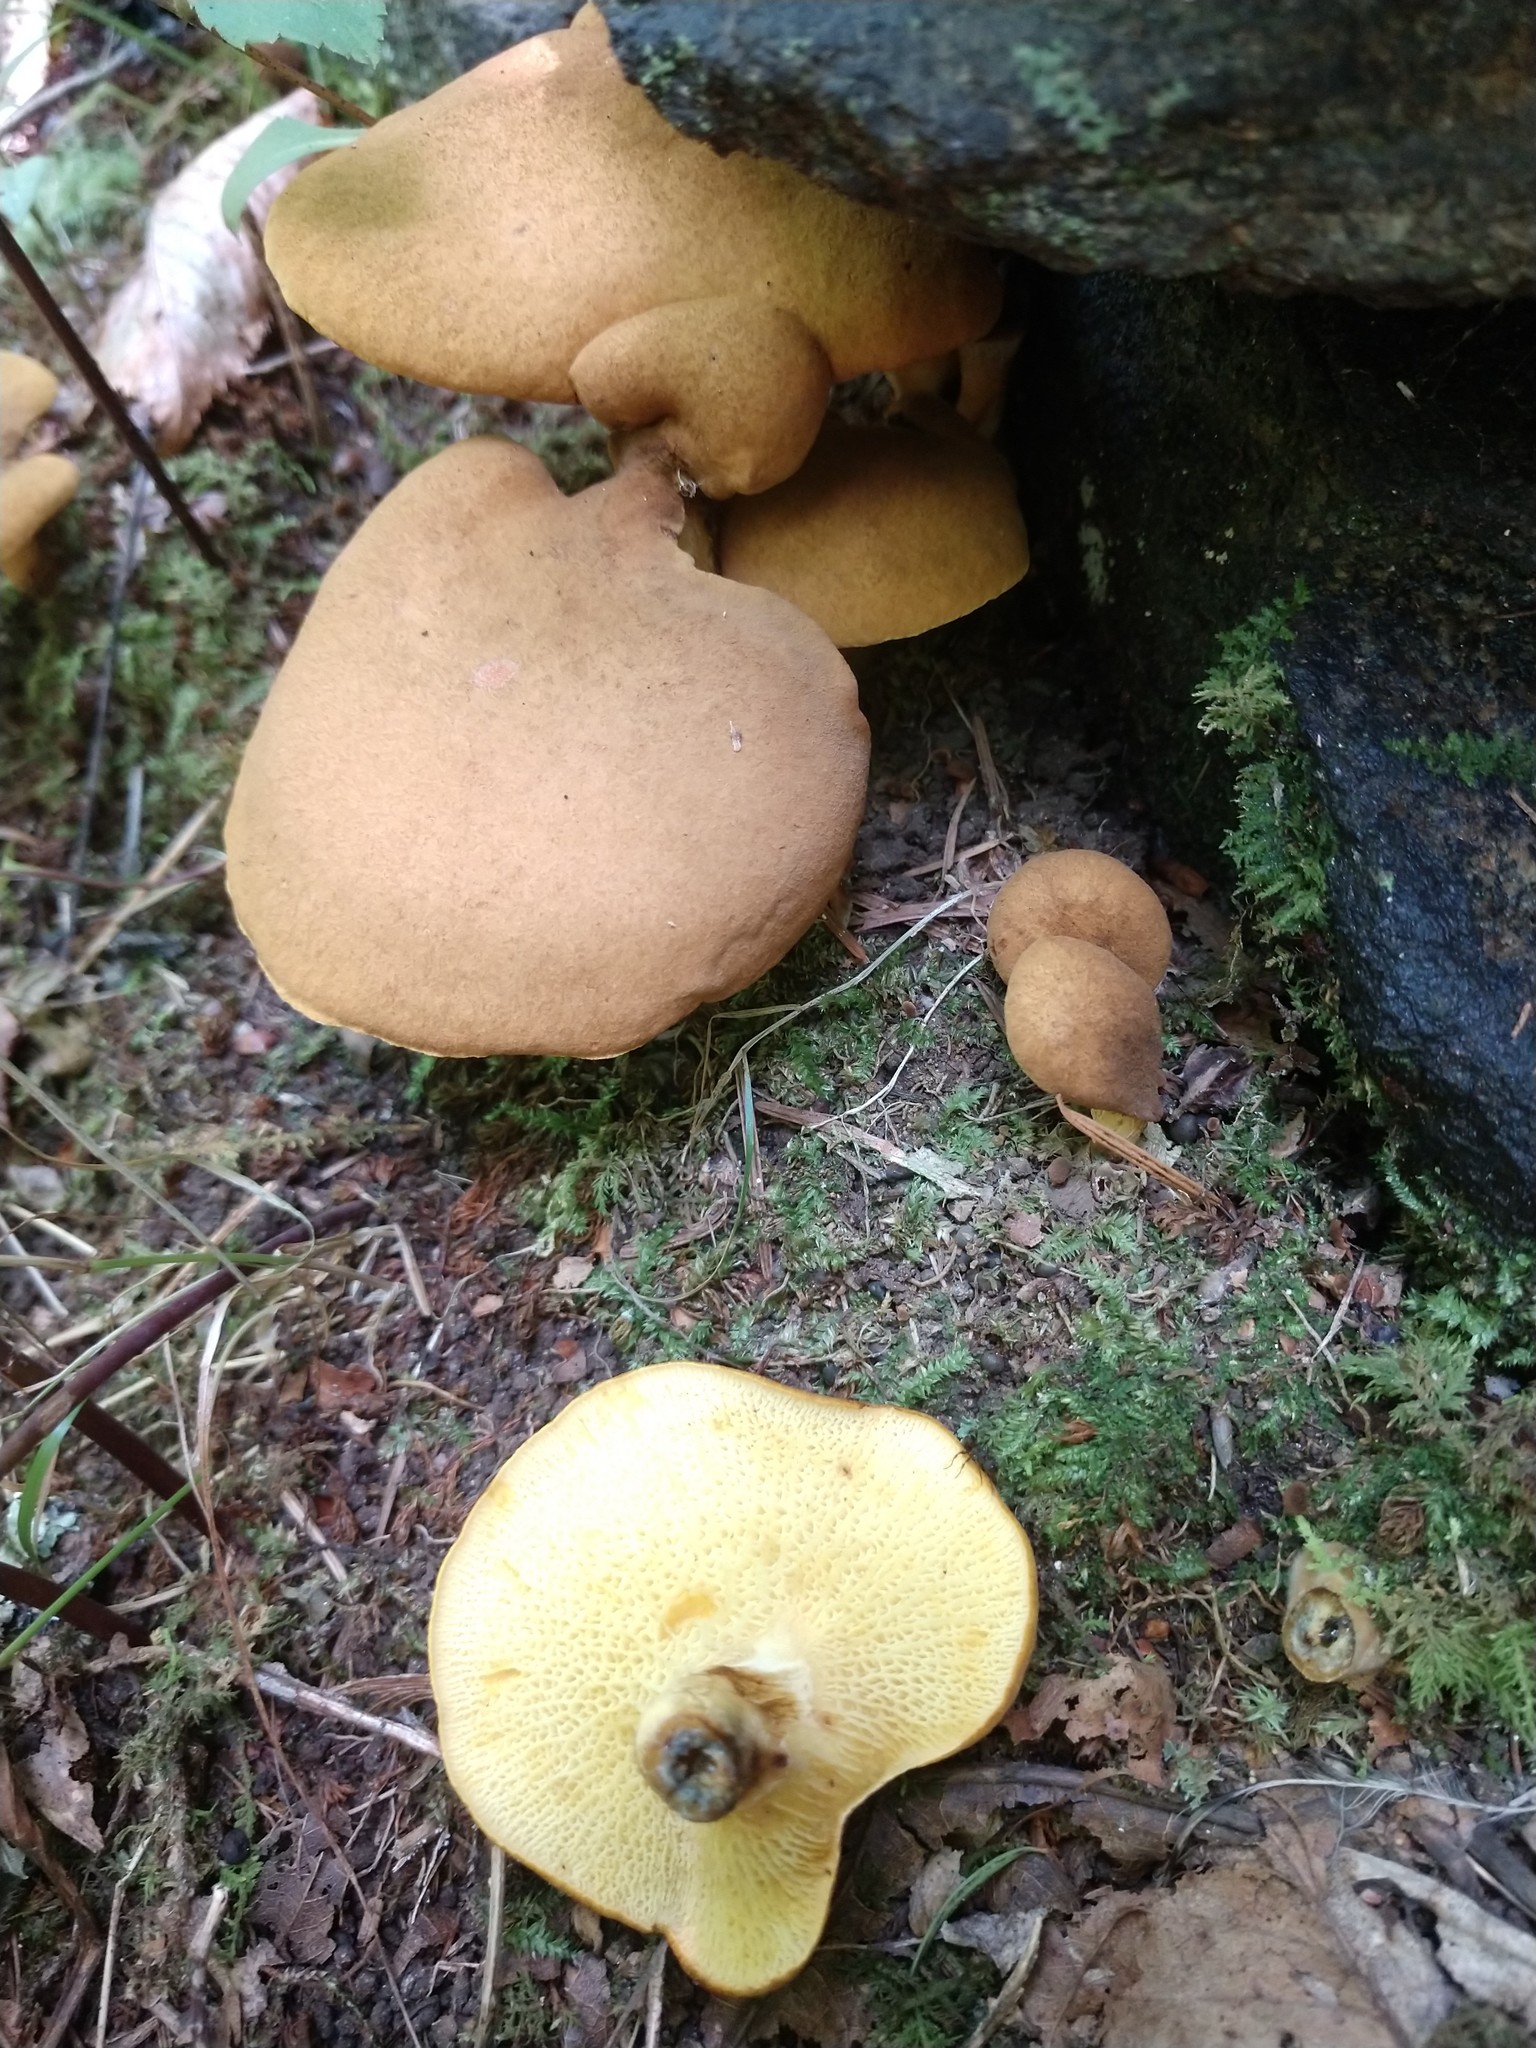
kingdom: Fungi
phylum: Basidiomycota
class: Agaricomycetes
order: Boletales
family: Boletinellaceae
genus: Boletinellus
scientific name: Boletinellus merulioides
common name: Ash tree bolete
